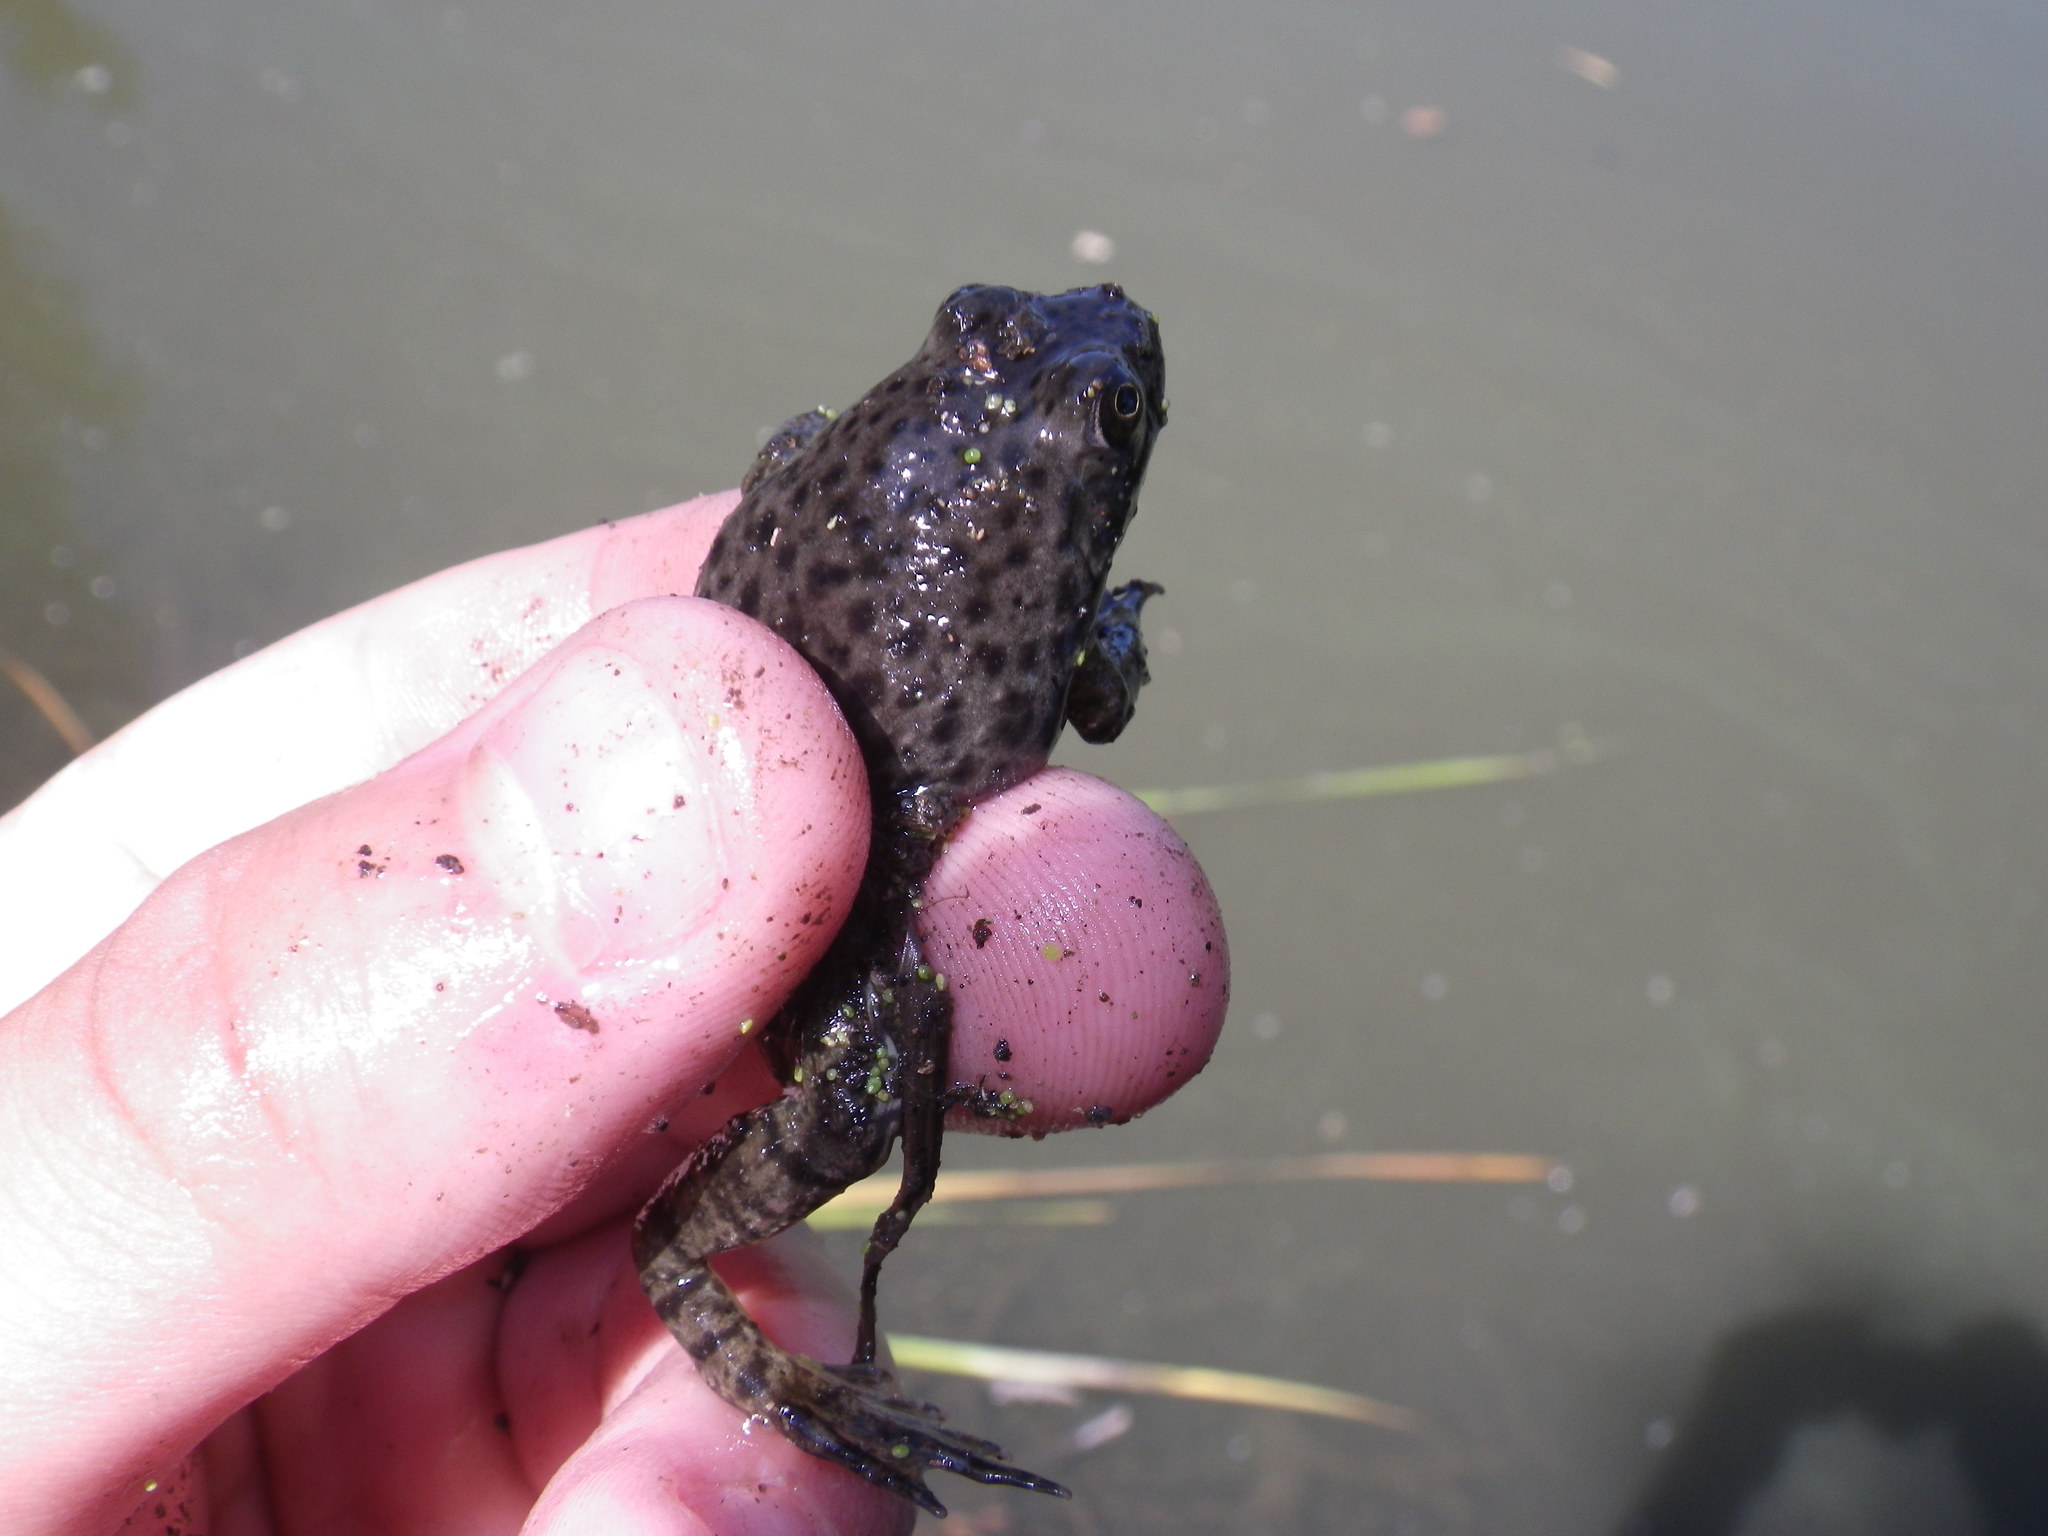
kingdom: Animalia
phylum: Chordata
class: Amphibia
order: Anura
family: Ranidae
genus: Lithobates
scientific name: Lithobates catesbeianus
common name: American bullfrog
